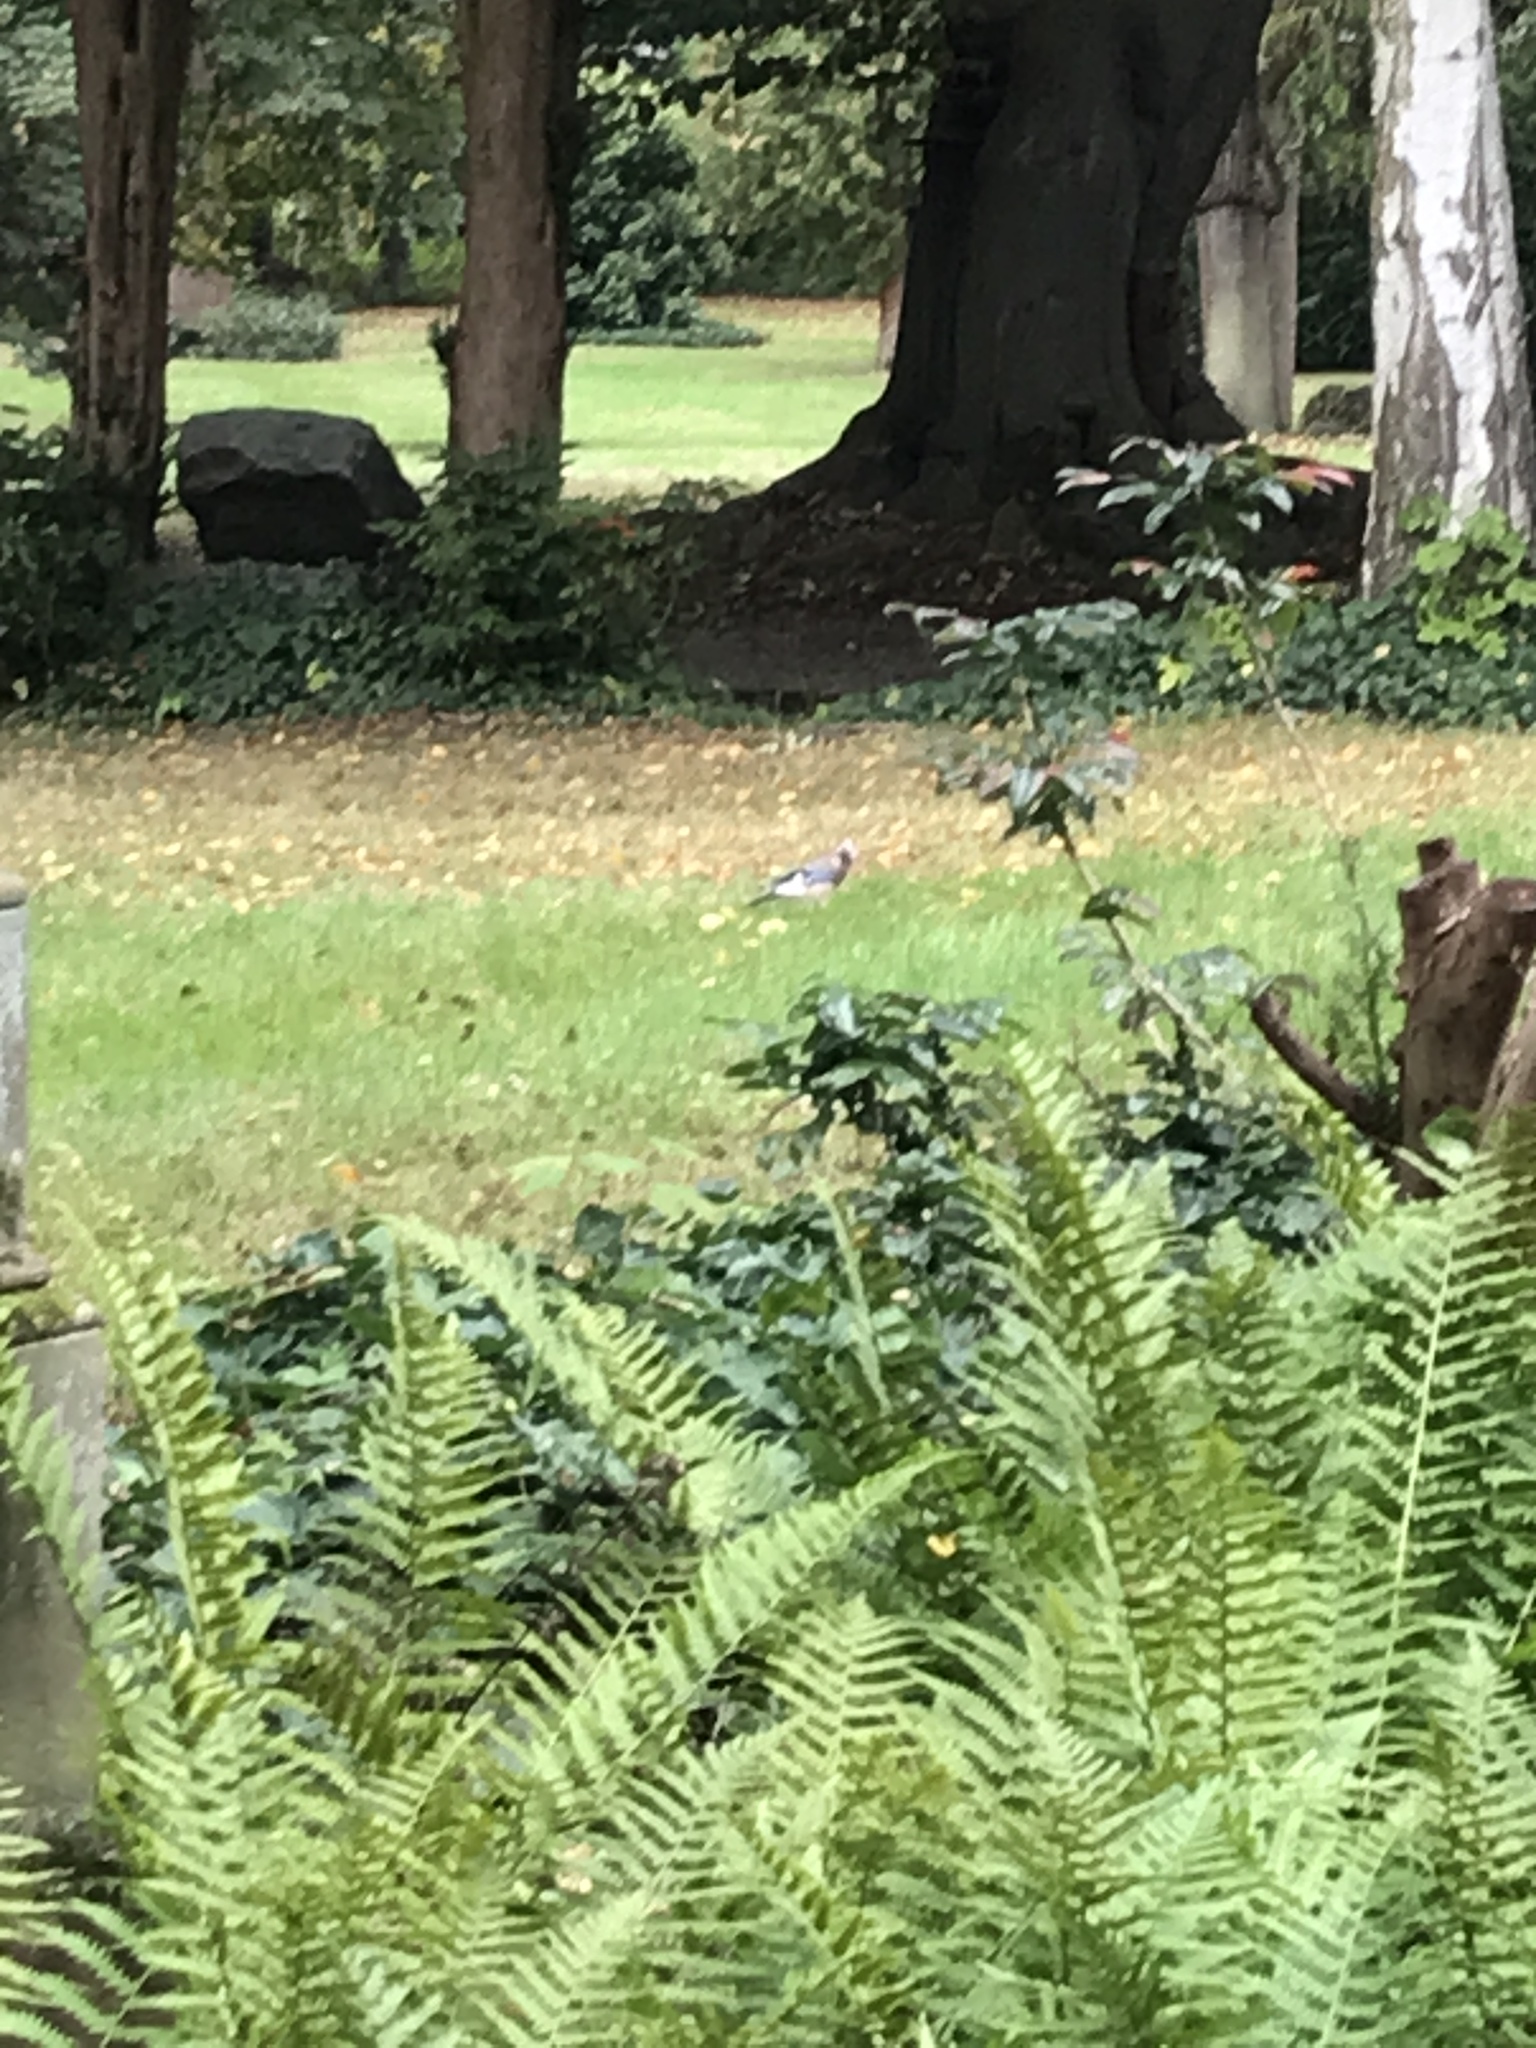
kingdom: Animalia
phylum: Chordata
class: Aves
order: Passeriformes
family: Corvidae
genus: Garrulus
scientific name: Garrulus glandarius
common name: Eurasian jay
